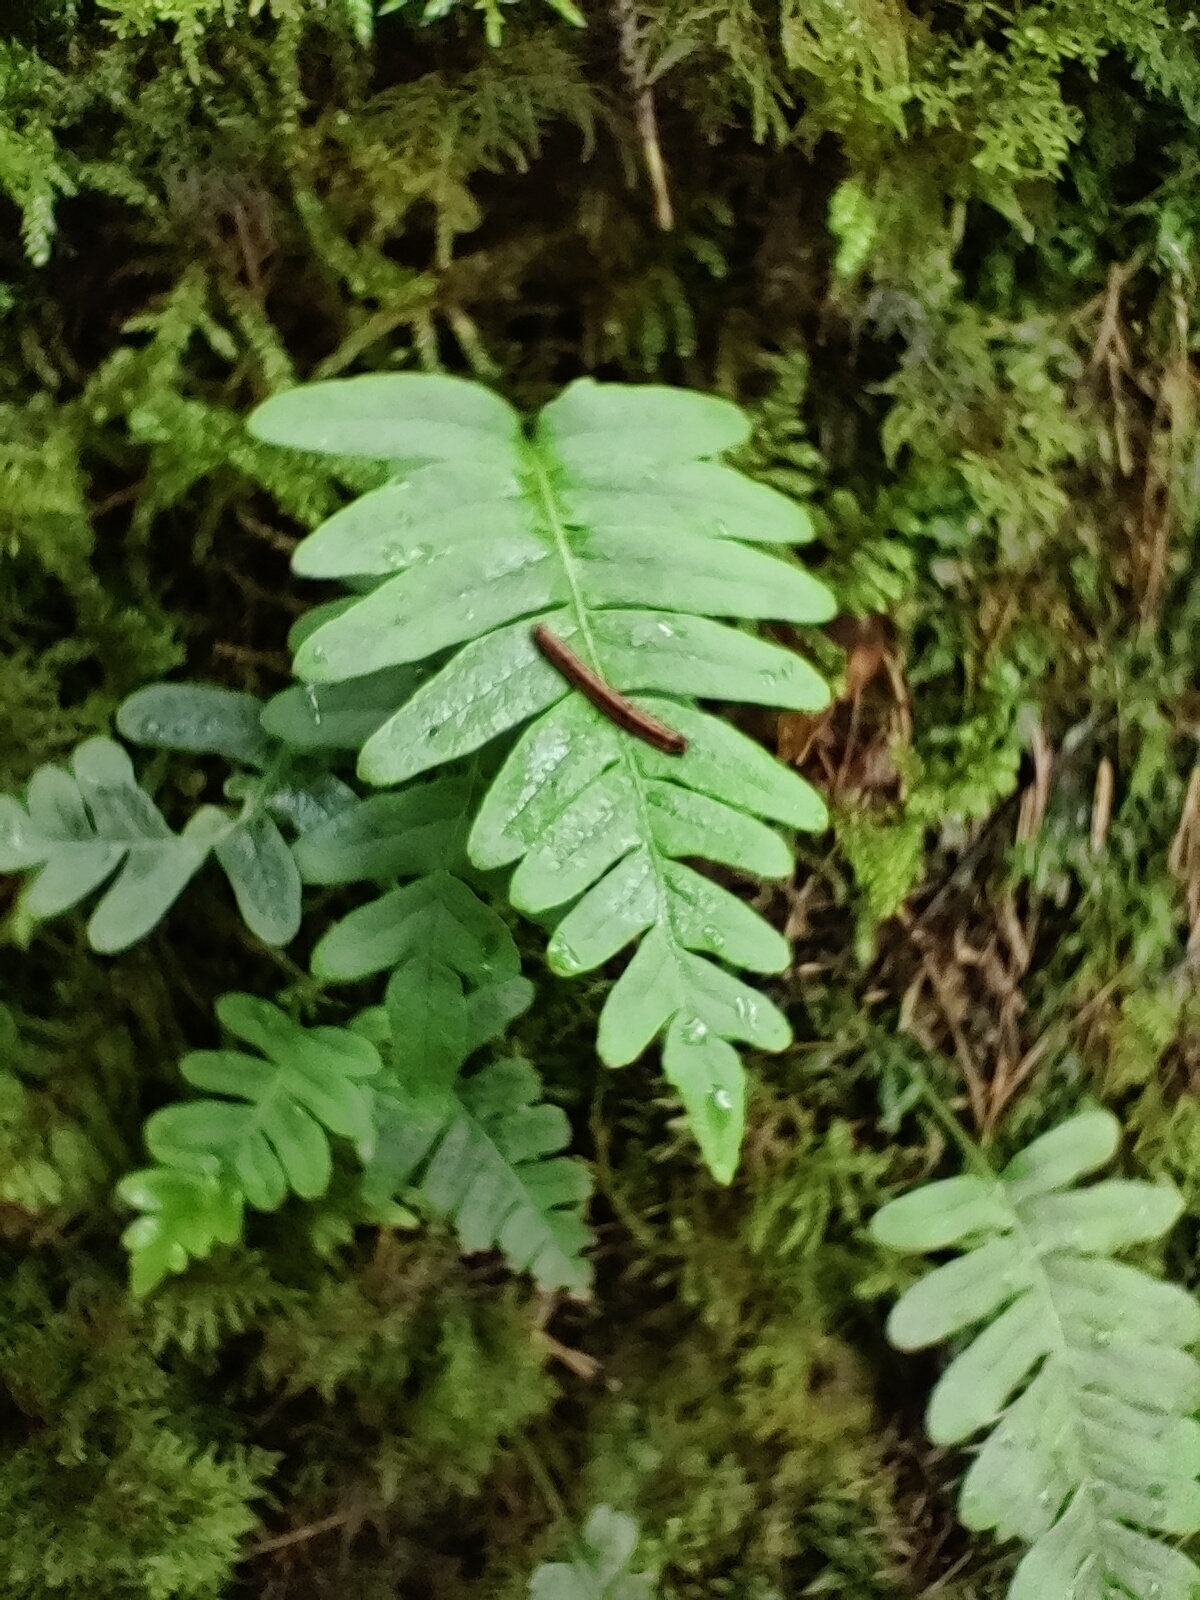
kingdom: Plantae
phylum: Tracheophyta
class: Polypodiopsida
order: Polypodiales
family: Polypodiaceae
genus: Polypodium
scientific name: Polypodium vulgare
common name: Common polypody
